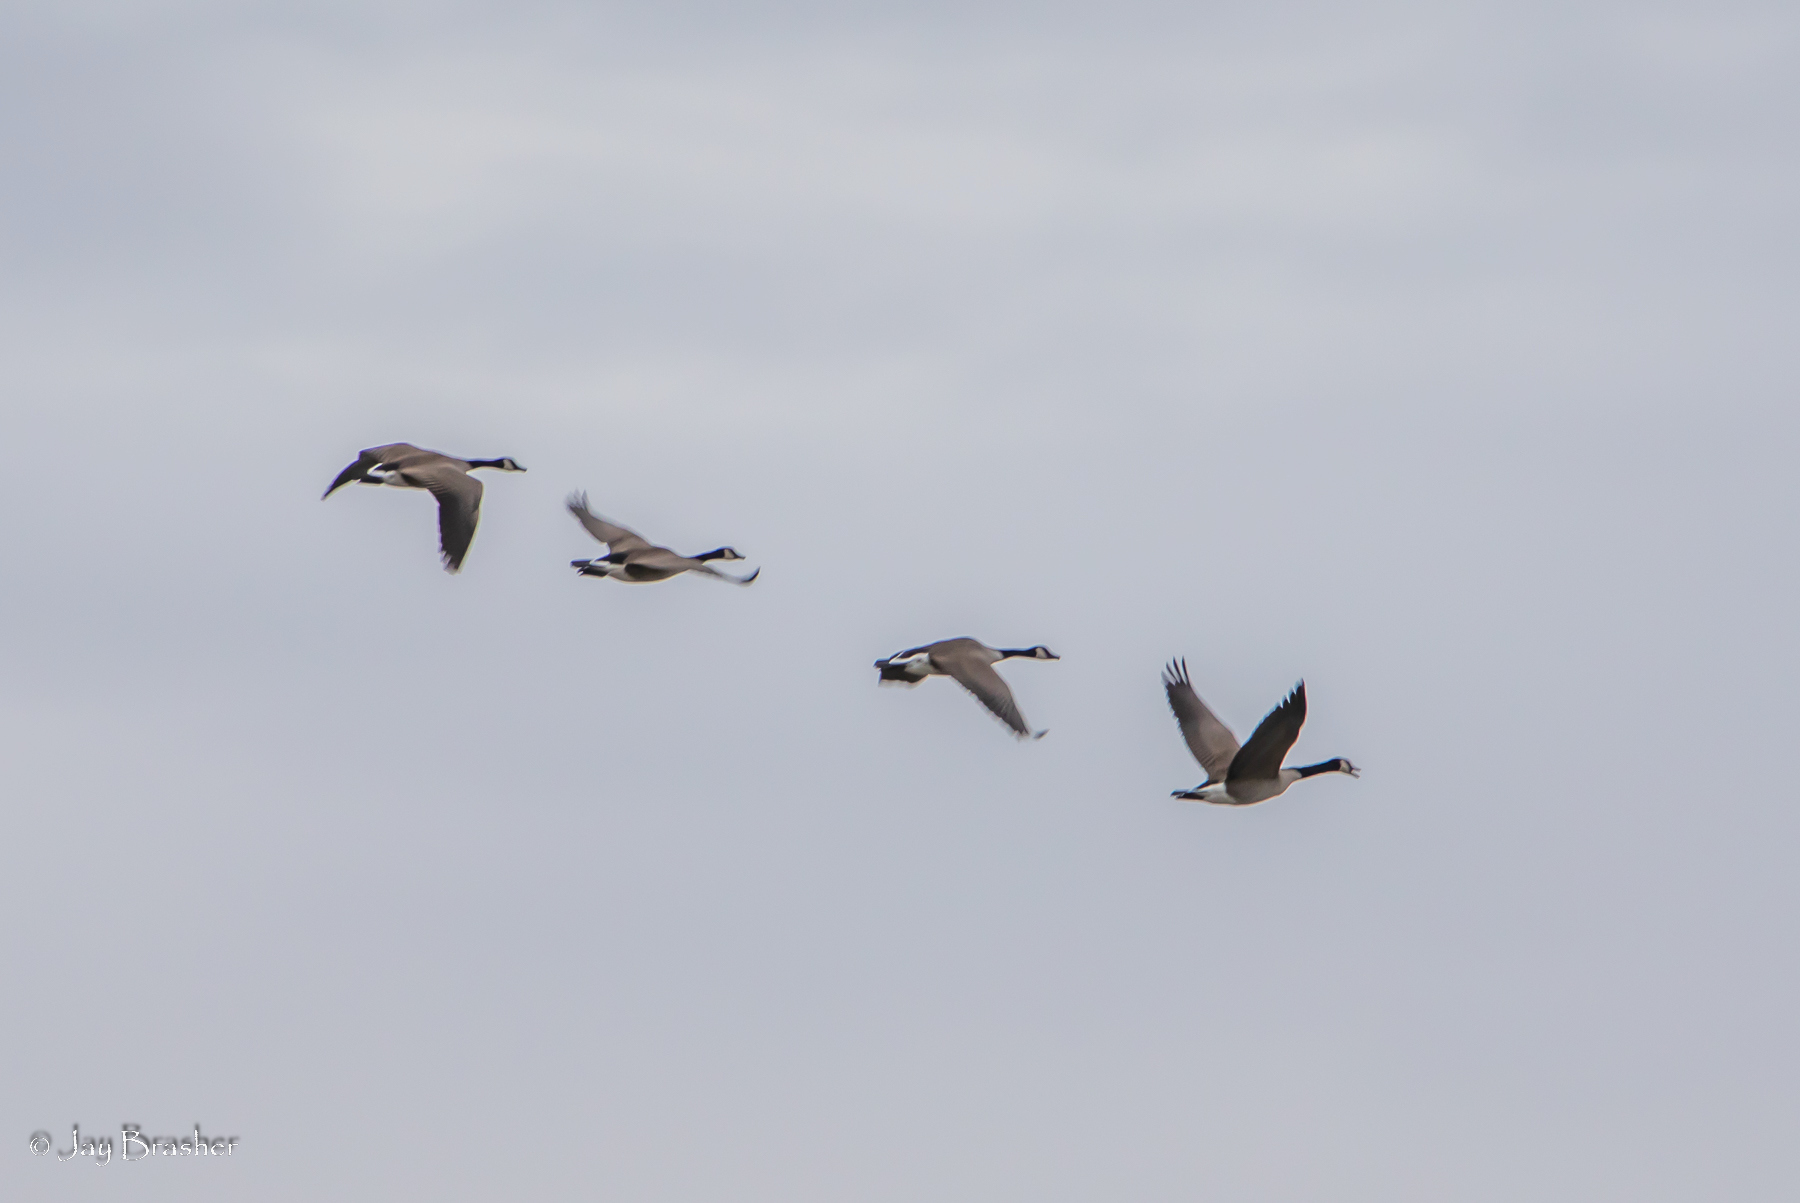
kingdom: Animalia
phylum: Chordata
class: Aves
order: Anseriformes
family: Anatidae
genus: Branta
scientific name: Branta canadensis
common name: Canada goose
